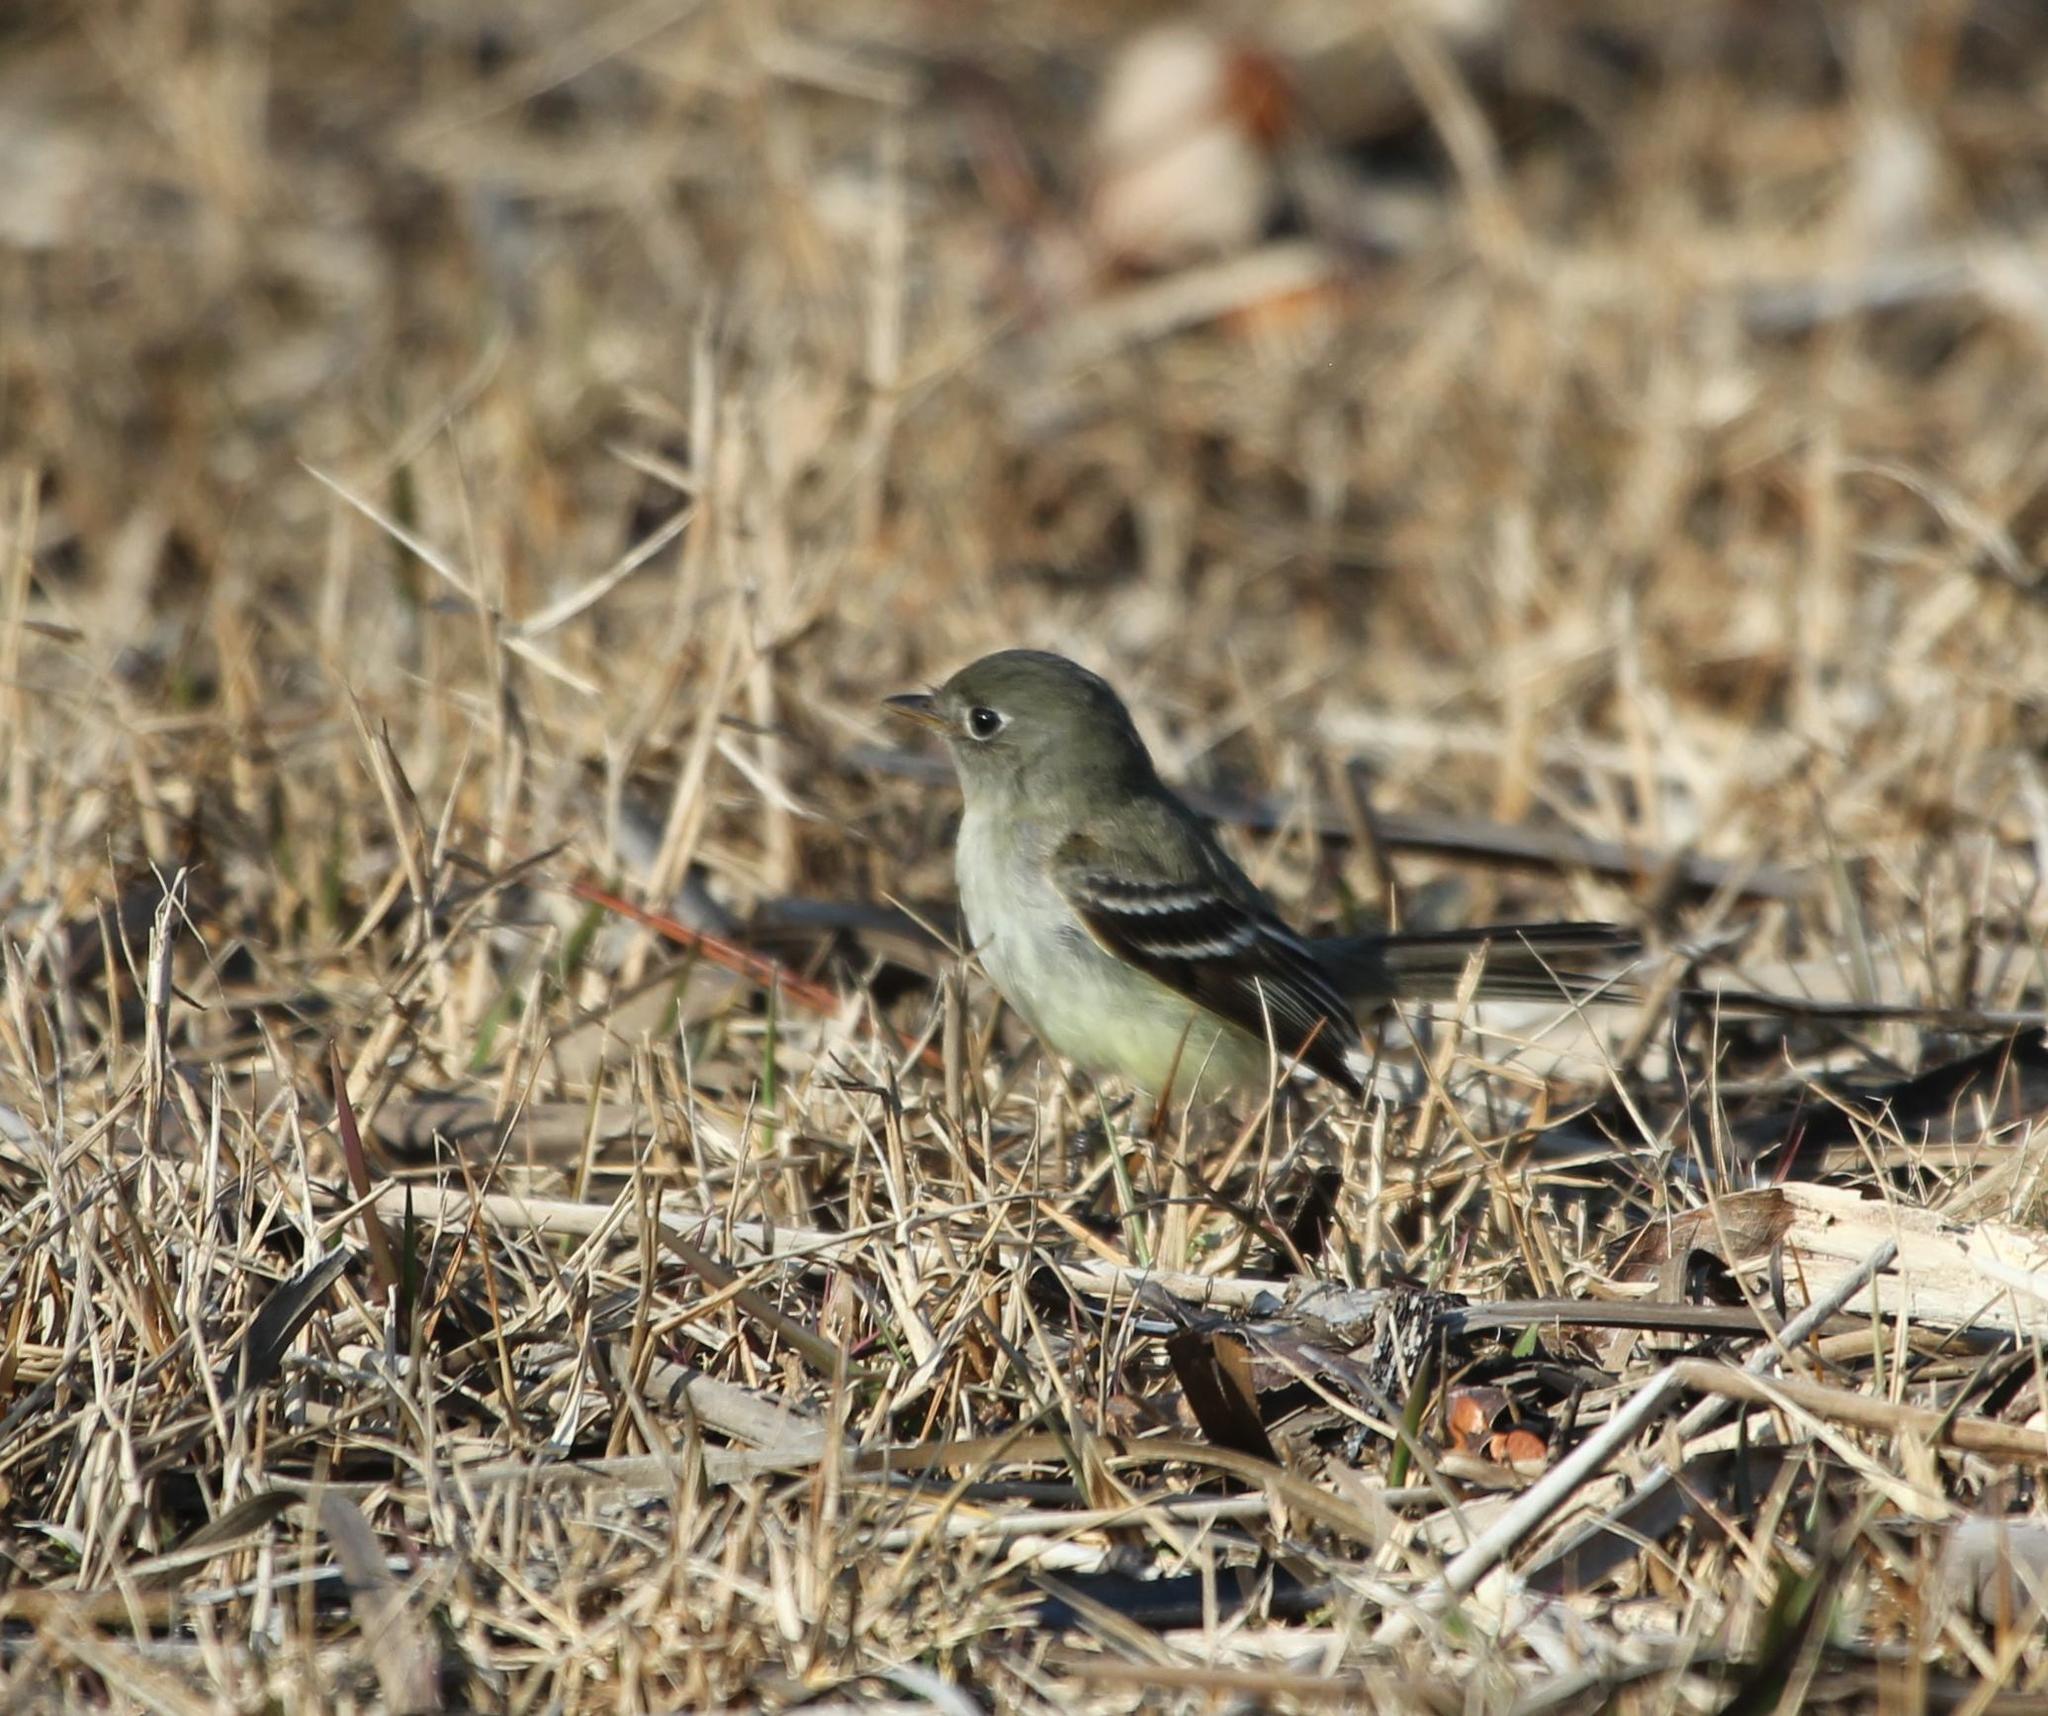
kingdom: Animalia
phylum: Chordata
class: Aves
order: Passeriformes
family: Tyrannidae
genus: Empidonax
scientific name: Empidonax minimus
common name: Least flycatcher
